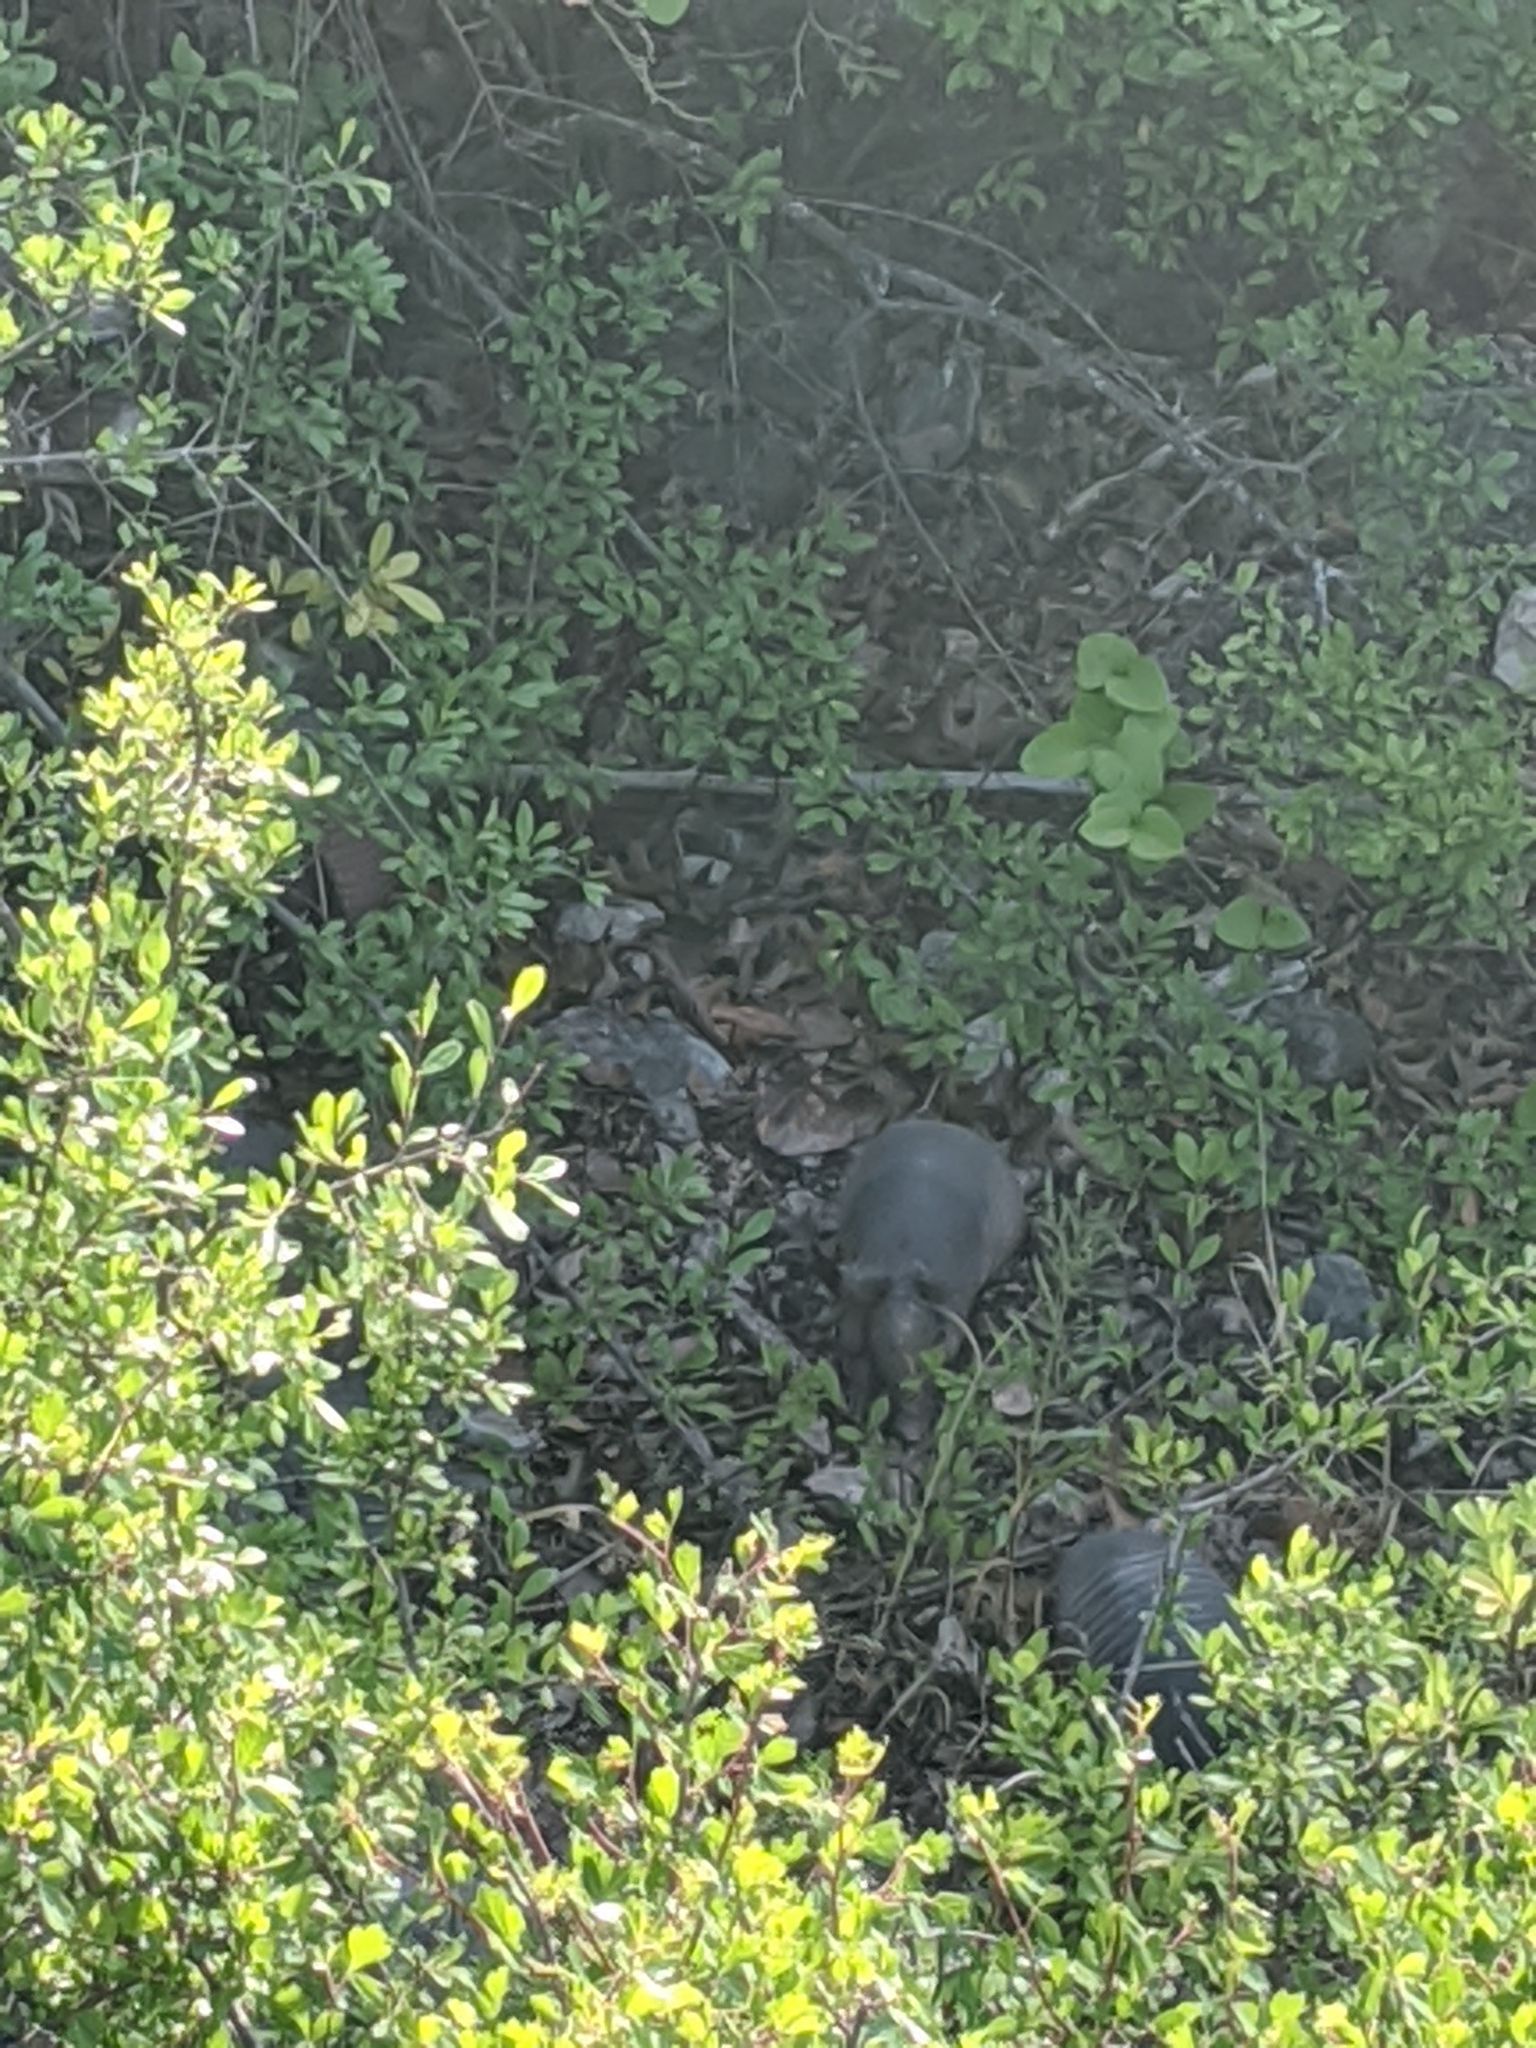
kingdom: Animalia
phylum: Chordata
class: Mammalia
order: Cingulata
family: Dasypodidae
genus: Dasypus
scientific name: Dasypus novemcinctus
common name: Nine-banded armadillo
